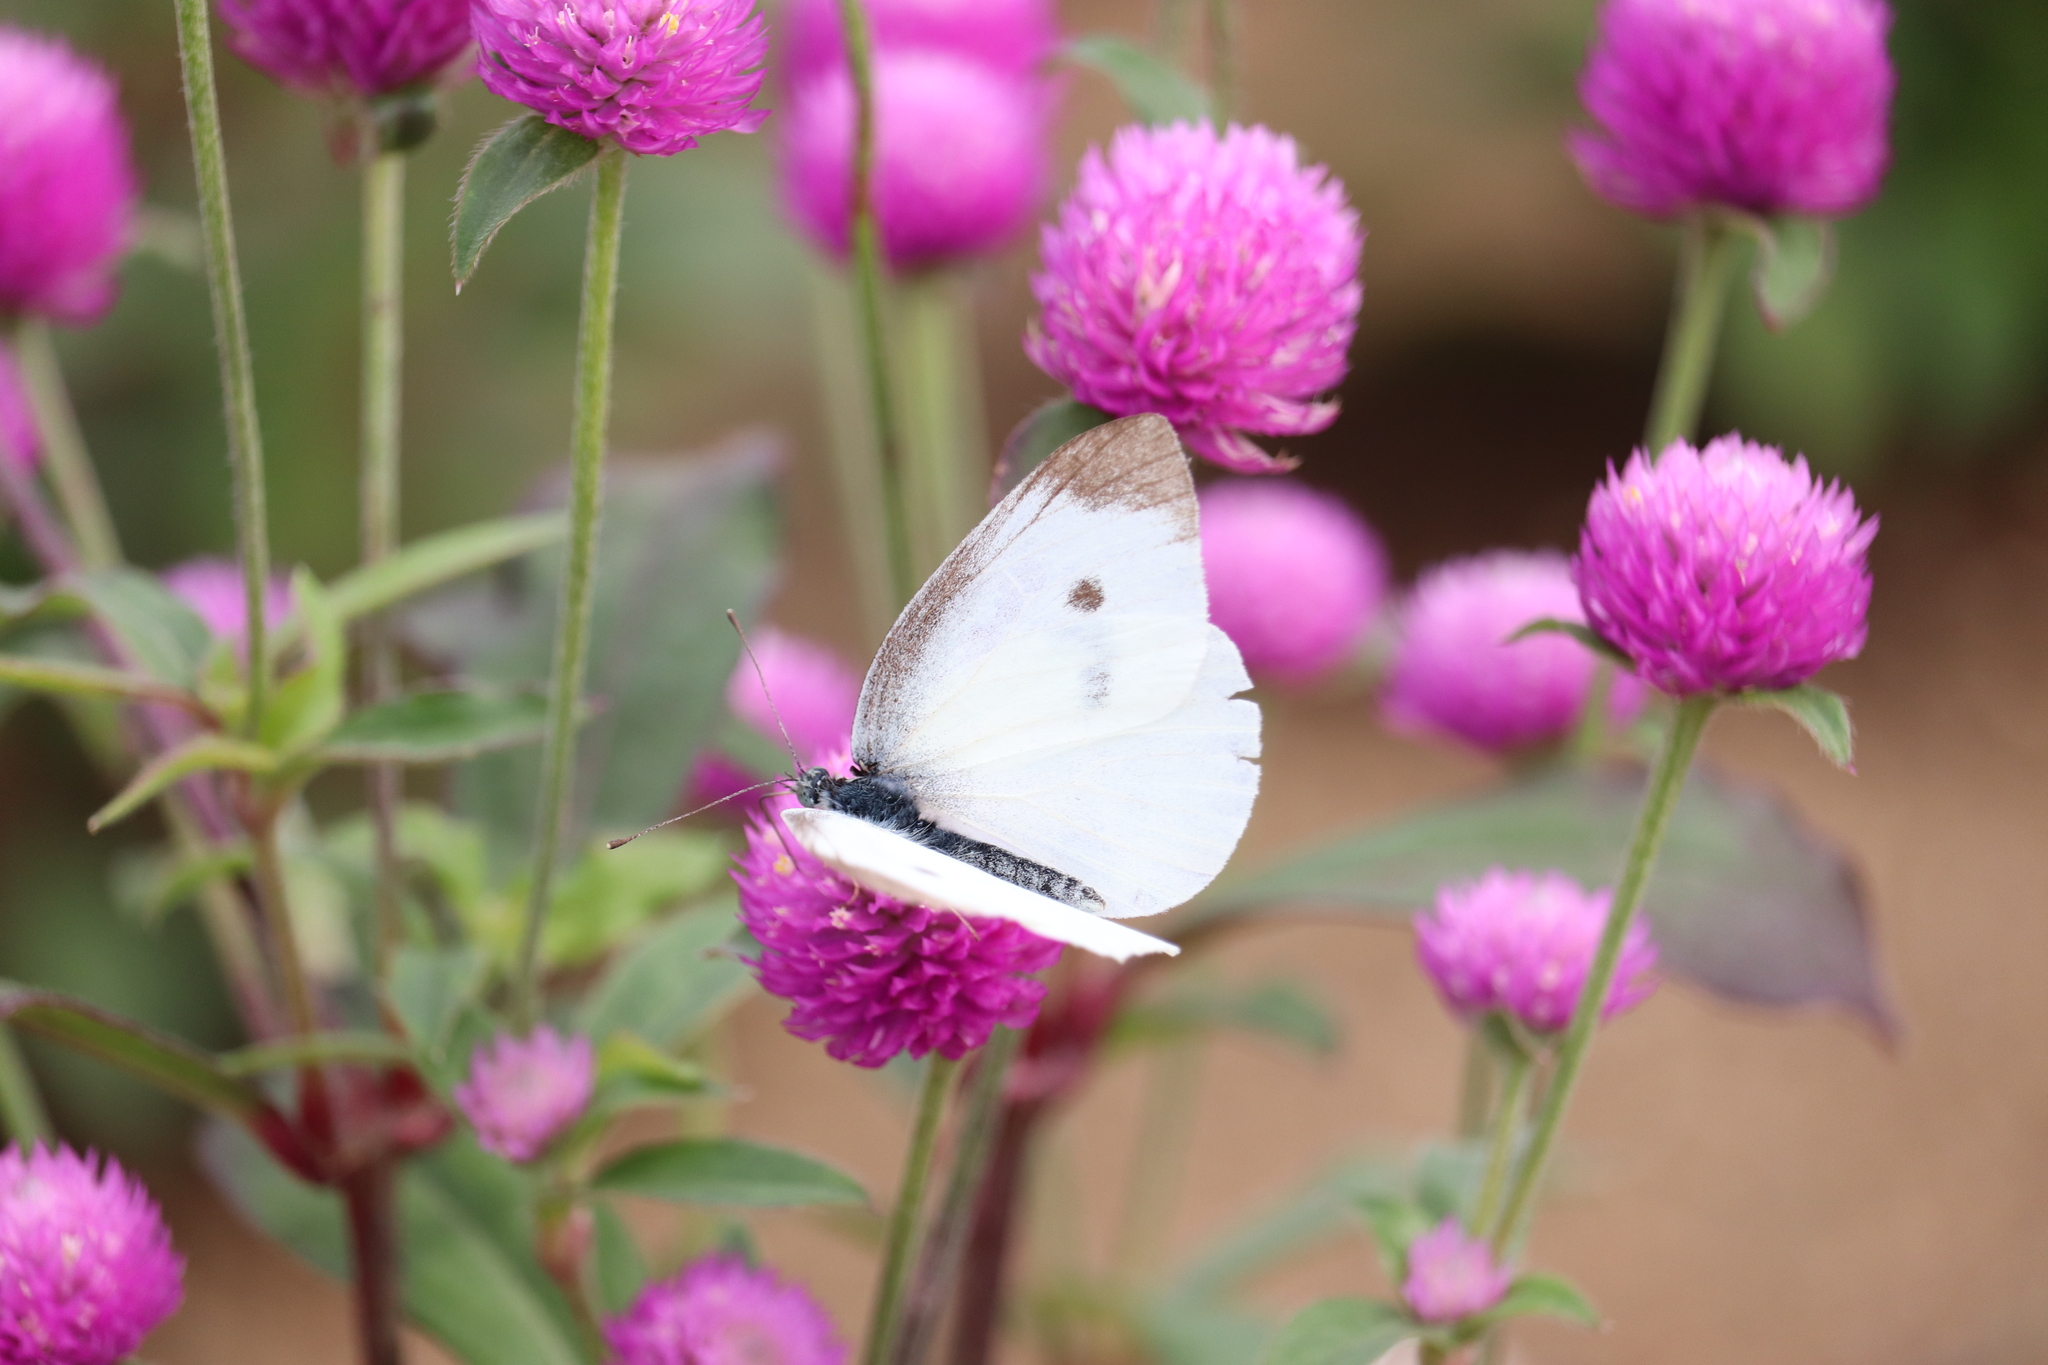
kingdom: Animalia
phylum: Arthropoda
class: Insecta
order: Lepidoptera
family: Pieridae
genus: Pieris
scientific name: Pieris rapae
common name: Small white
